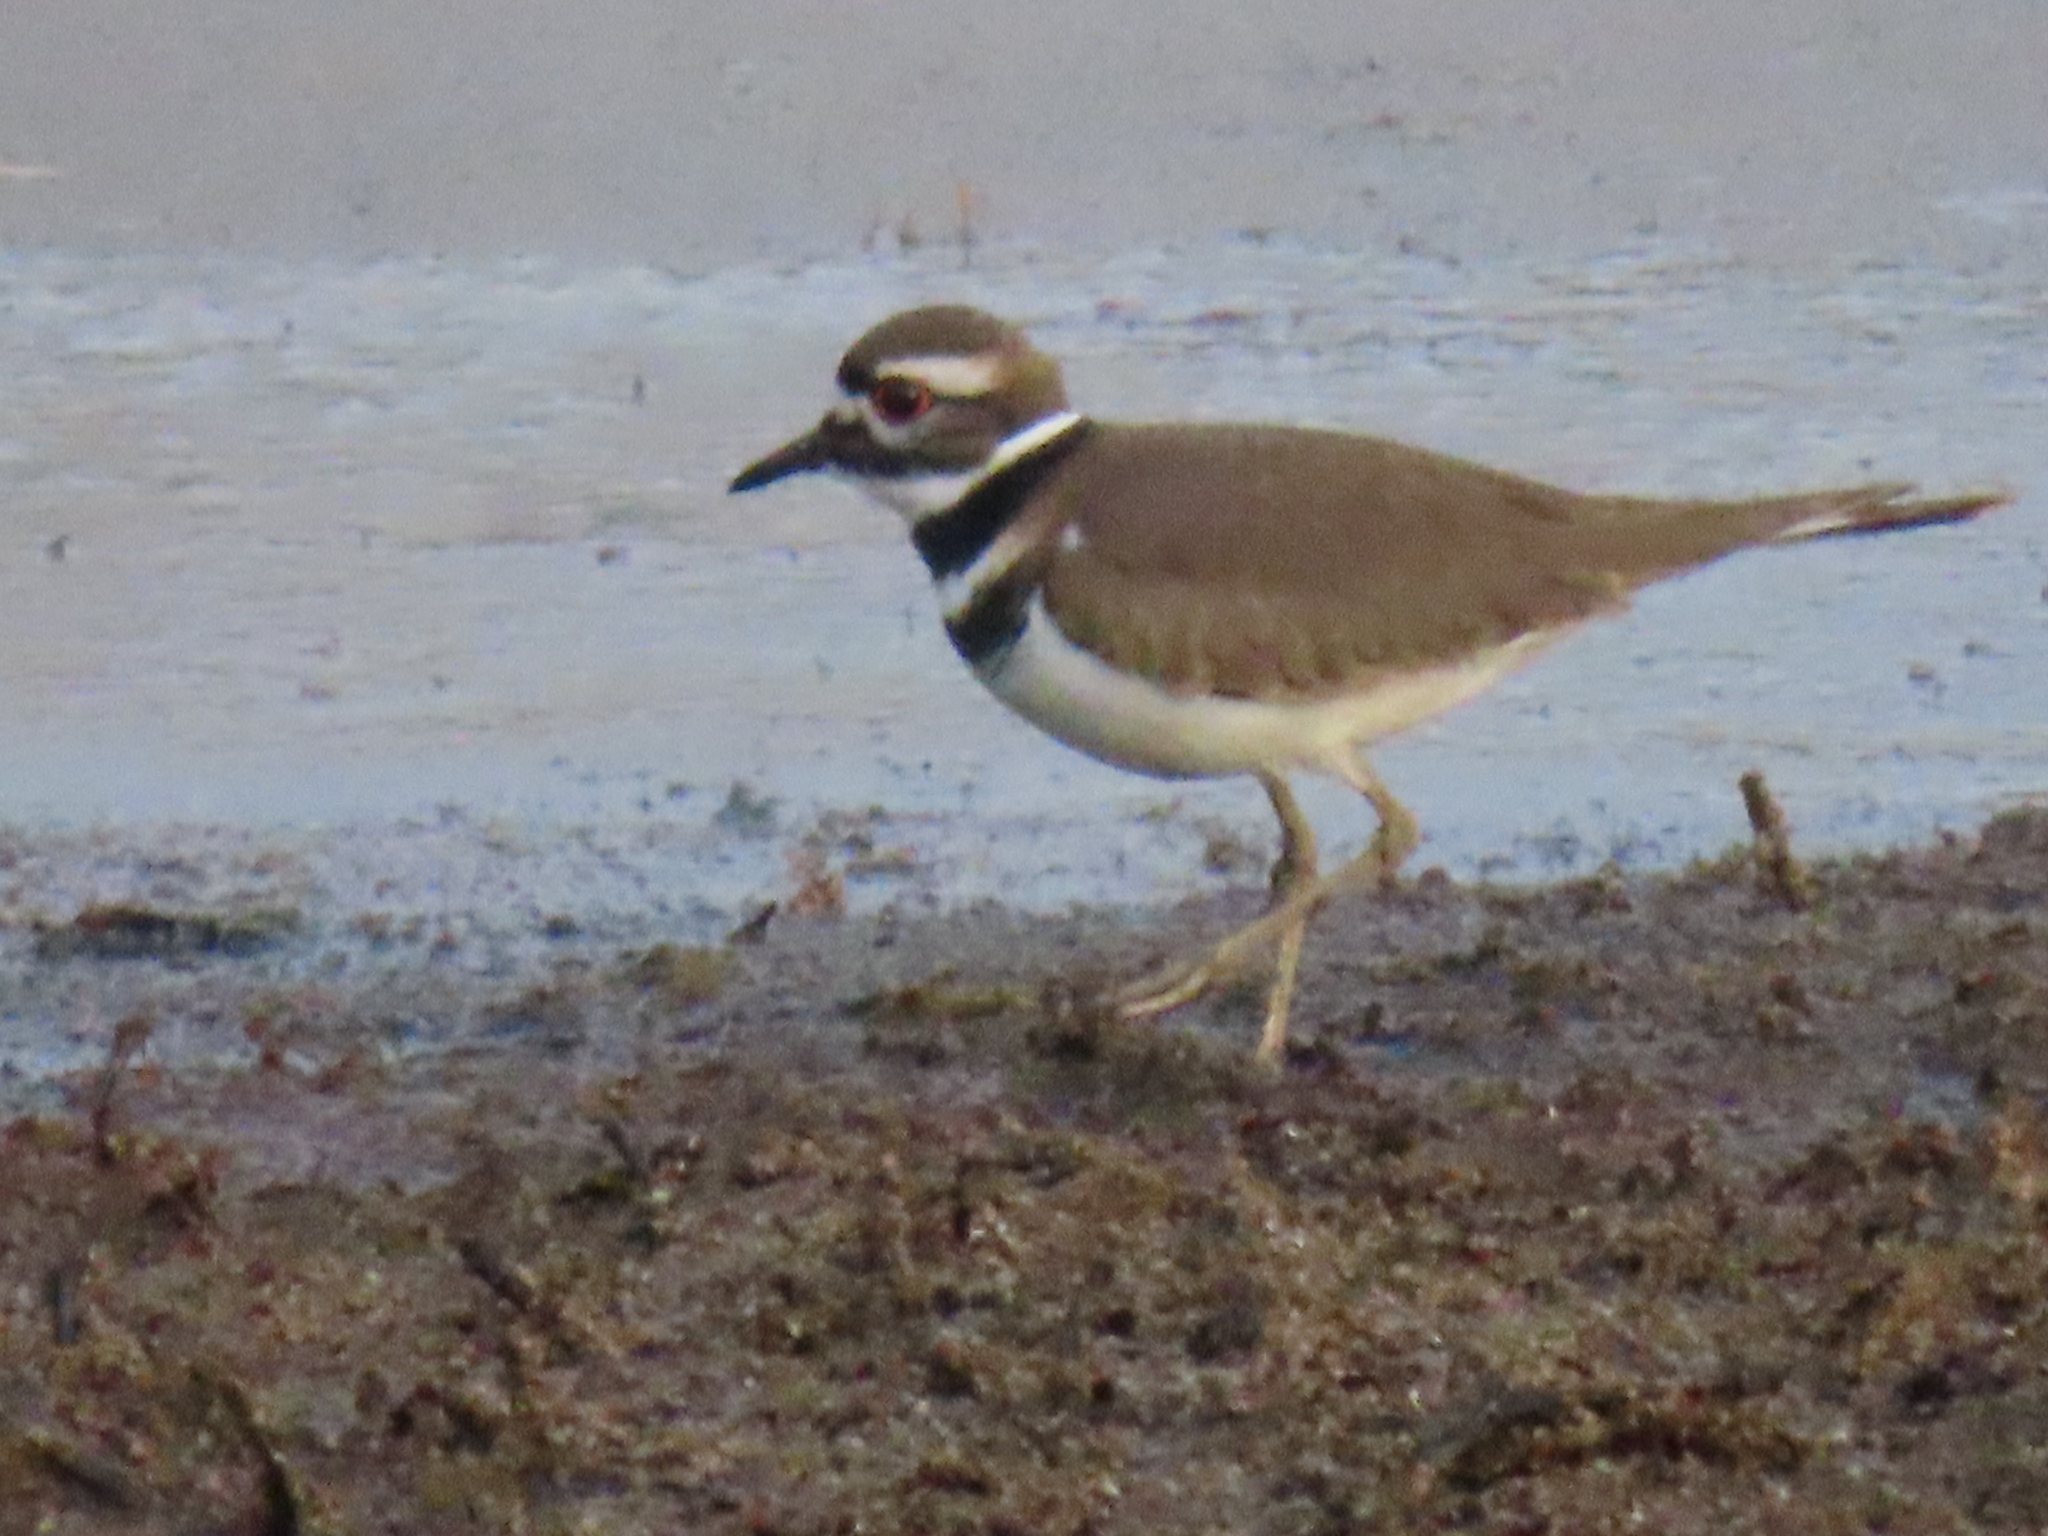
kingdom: Animalia
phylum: Chordata
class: Aves
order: Charadriiformes
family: Charadriidae
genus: Charadrius
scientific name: Charadrius vociferus
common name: Killdeer
